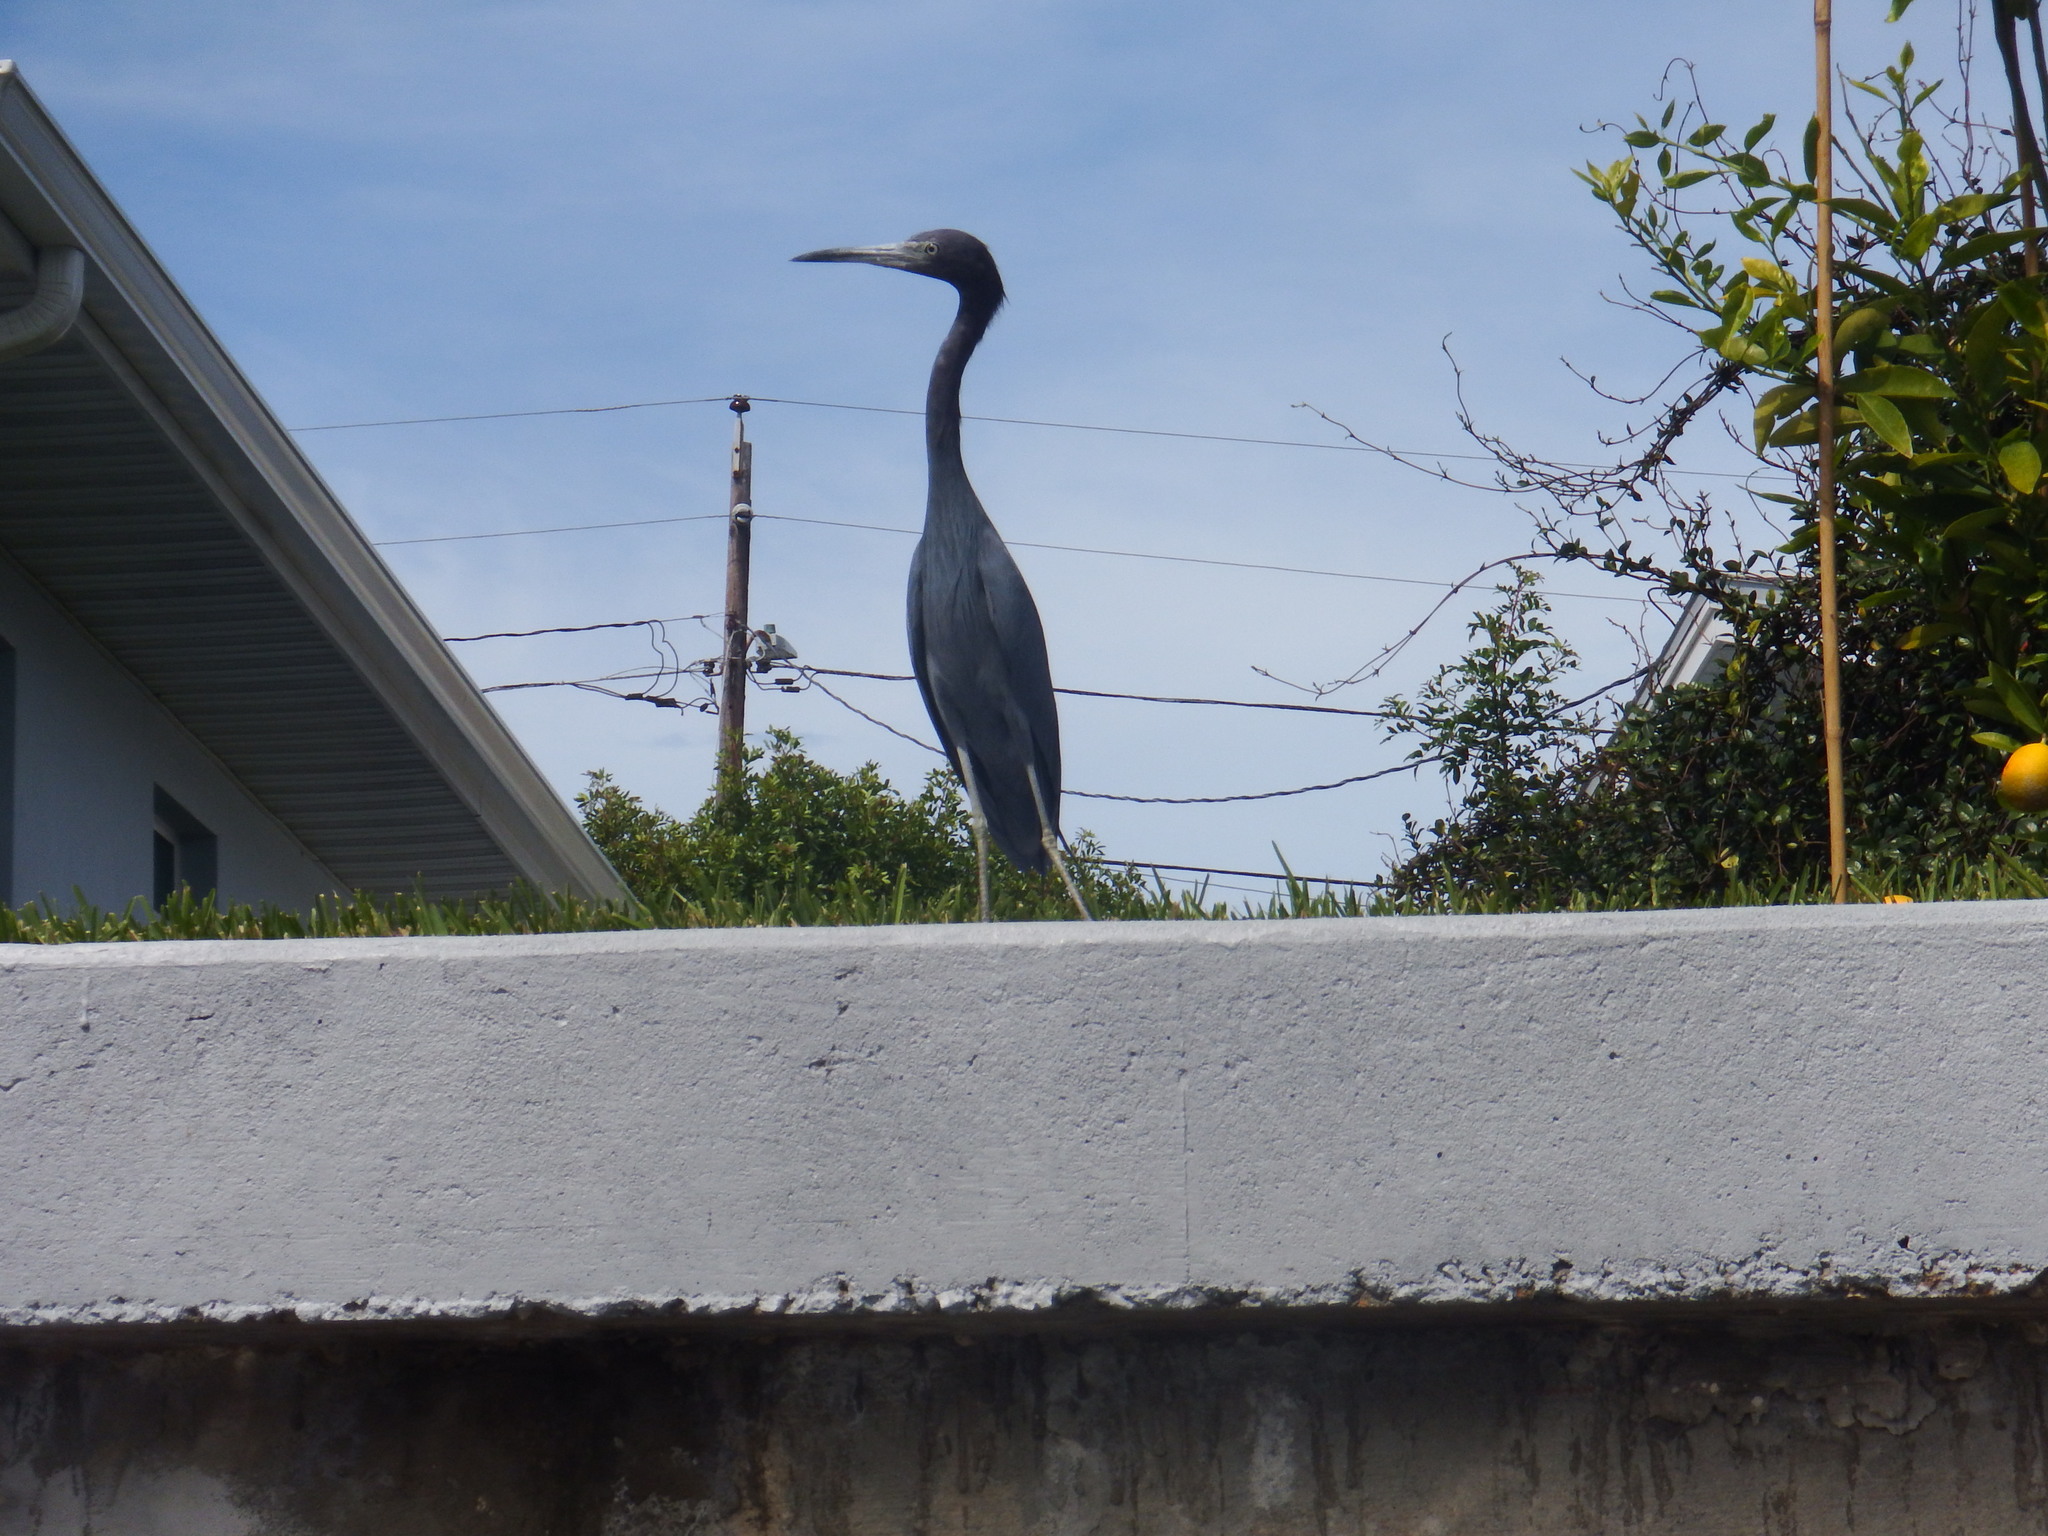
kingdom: Animalia
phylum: Chordata
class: Aves
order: Pelecaniformes
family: Ardeidae
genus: Egretta
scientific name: Egretta caerulea
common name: Little blue heron
